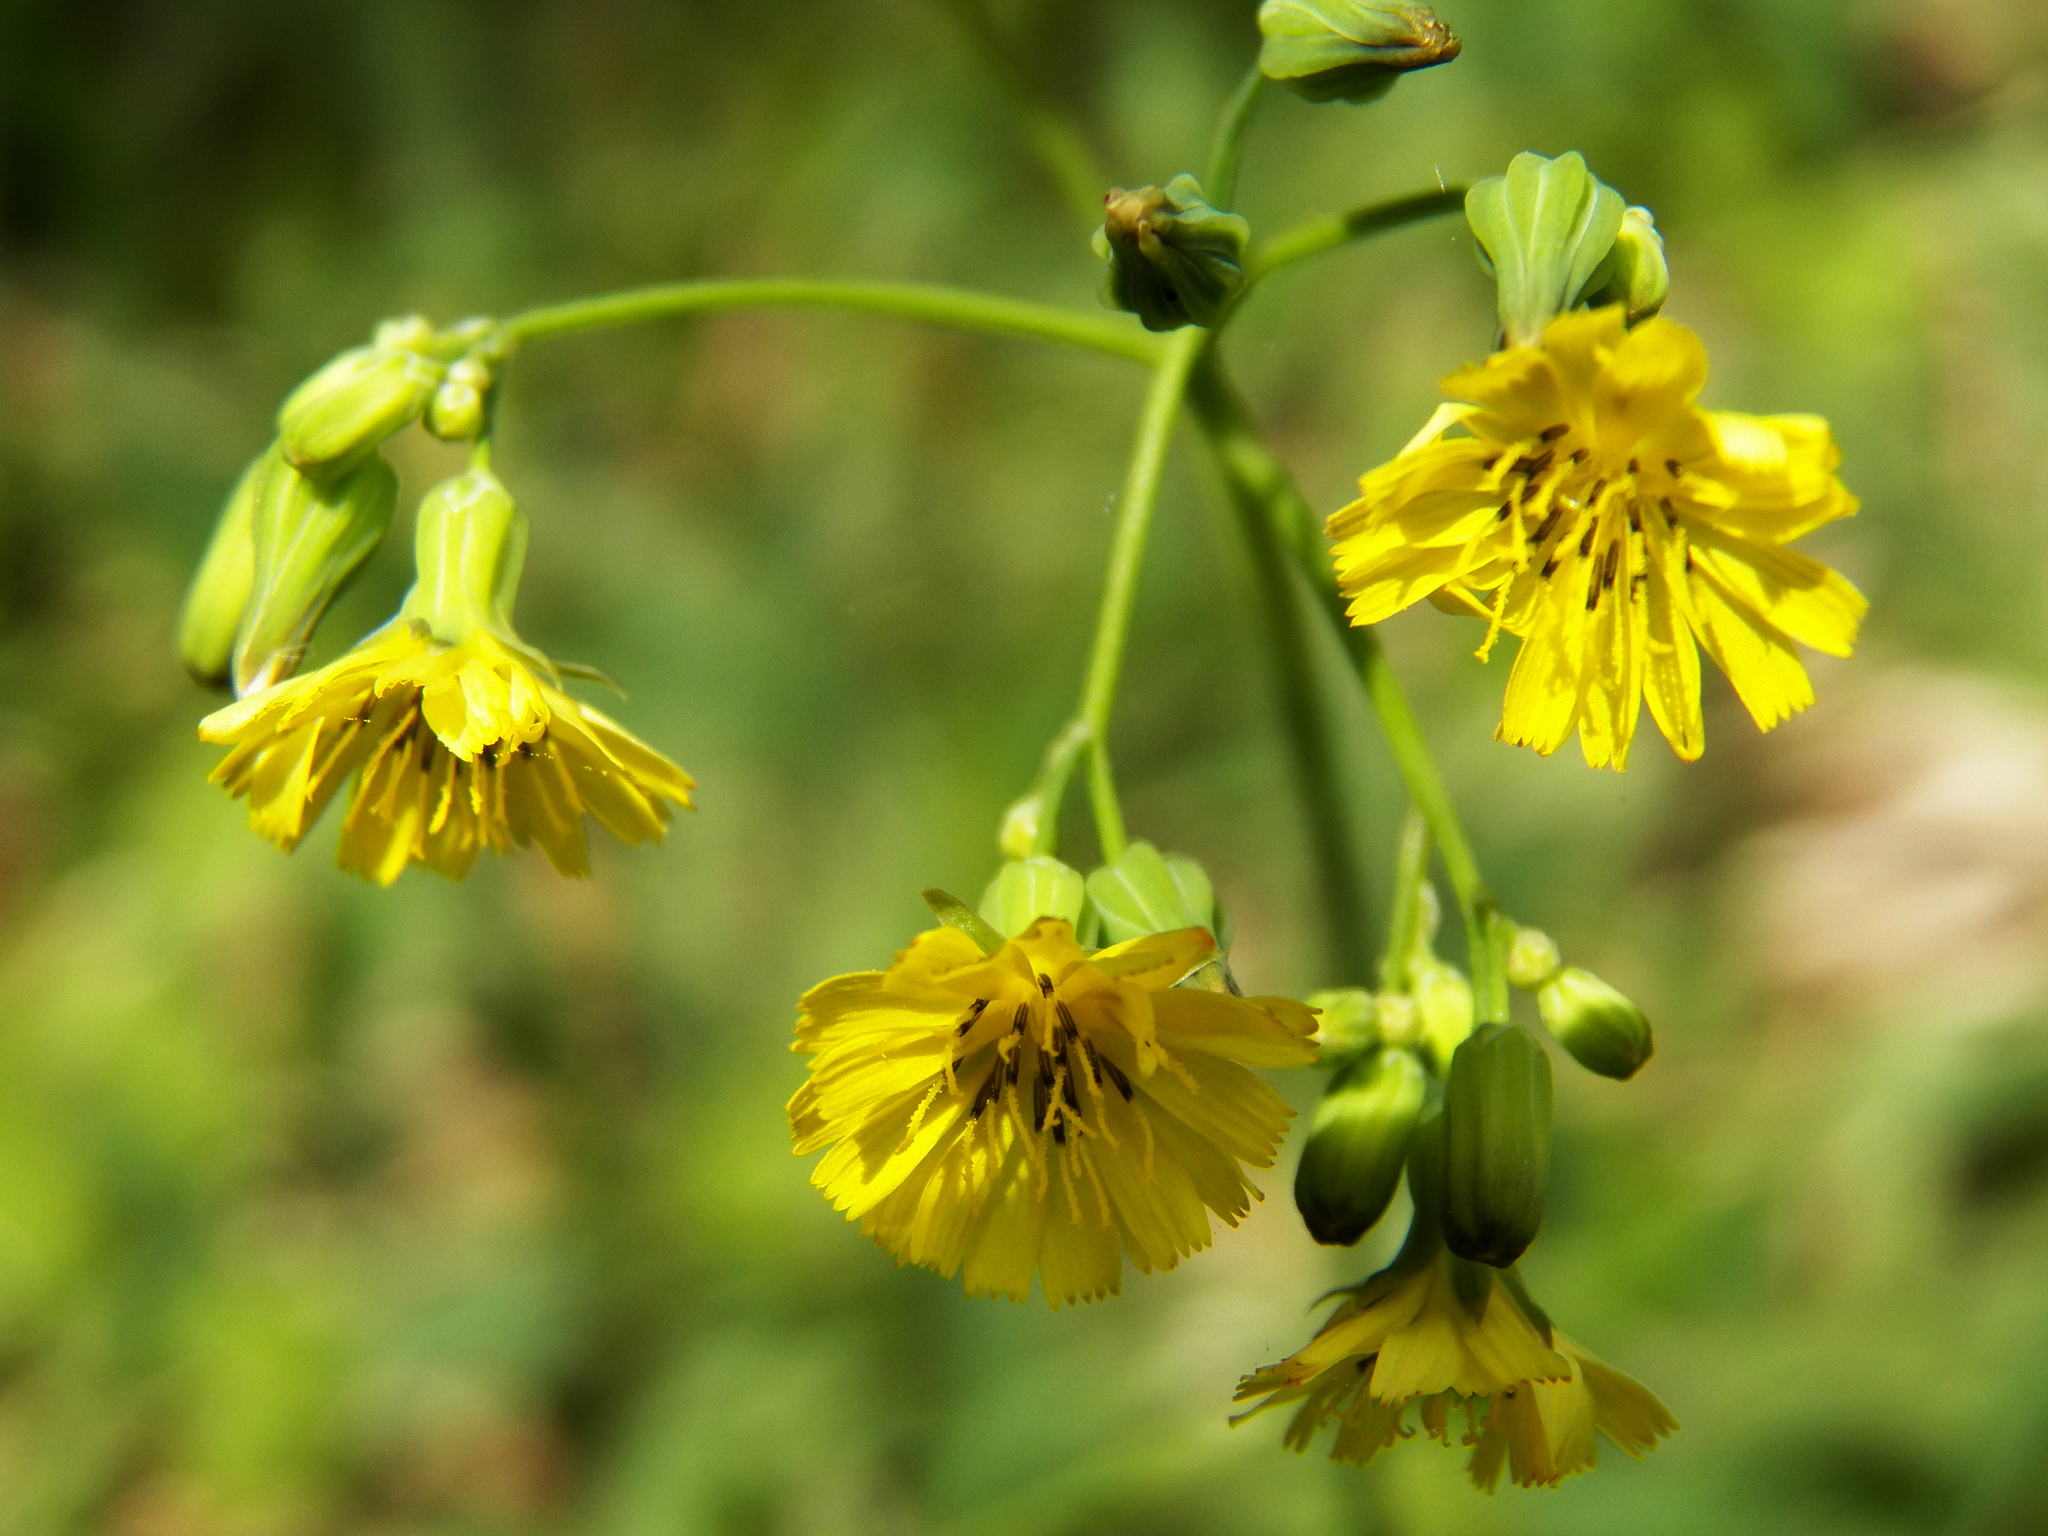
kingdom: Plantae
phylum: Tracheophyta
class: Magnoliopsida
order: Asterales
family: Asteraceae
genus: Youngia
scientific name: Youngia japonica
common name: Oriental false hawksbeard
